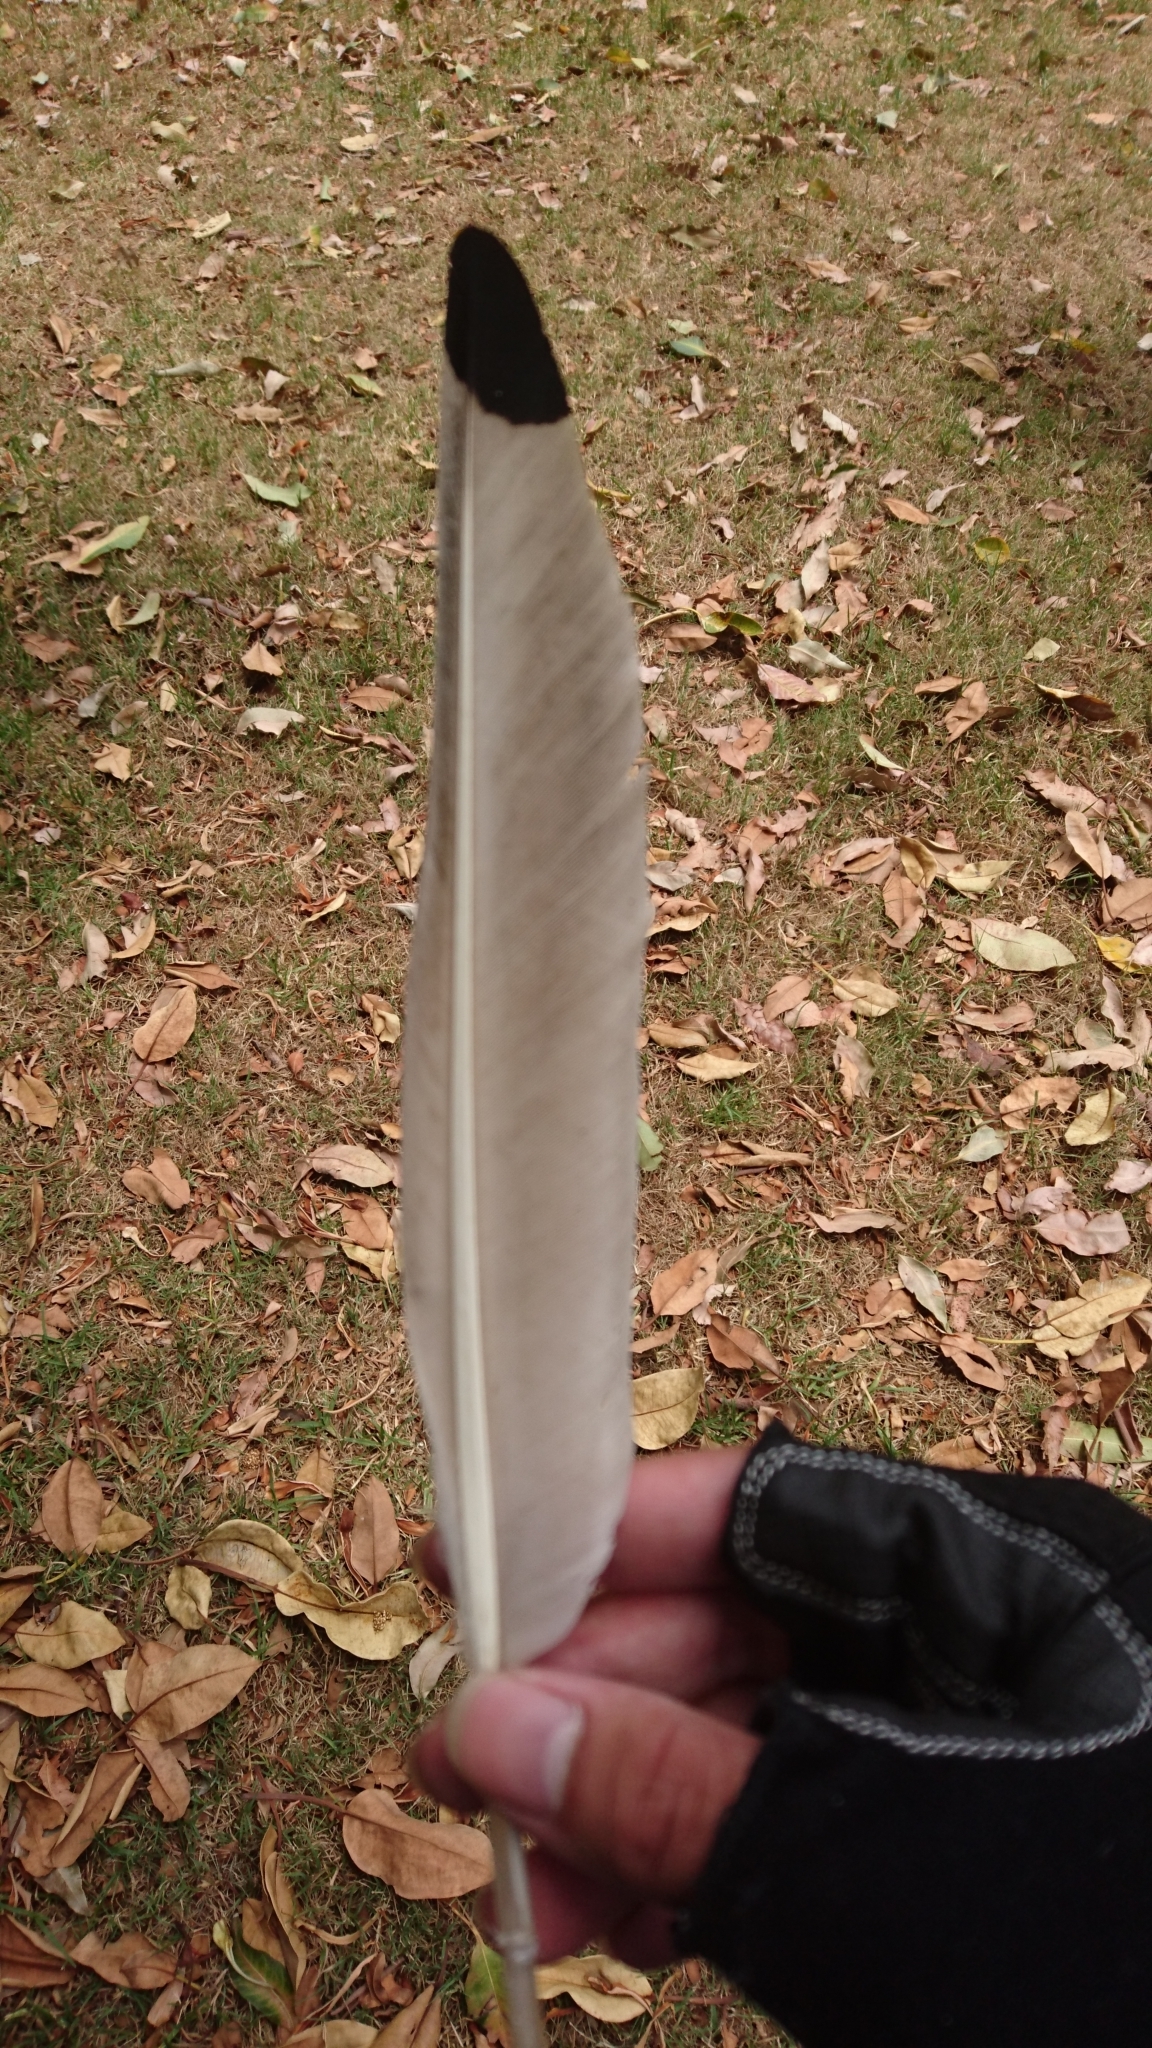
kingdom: Animalia
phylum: Chordata
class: Aves
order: Pelecaniformes
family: Threskiornithidae
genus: Threskiornis
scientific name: Threskiornis molucca
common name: Australian white ibis
